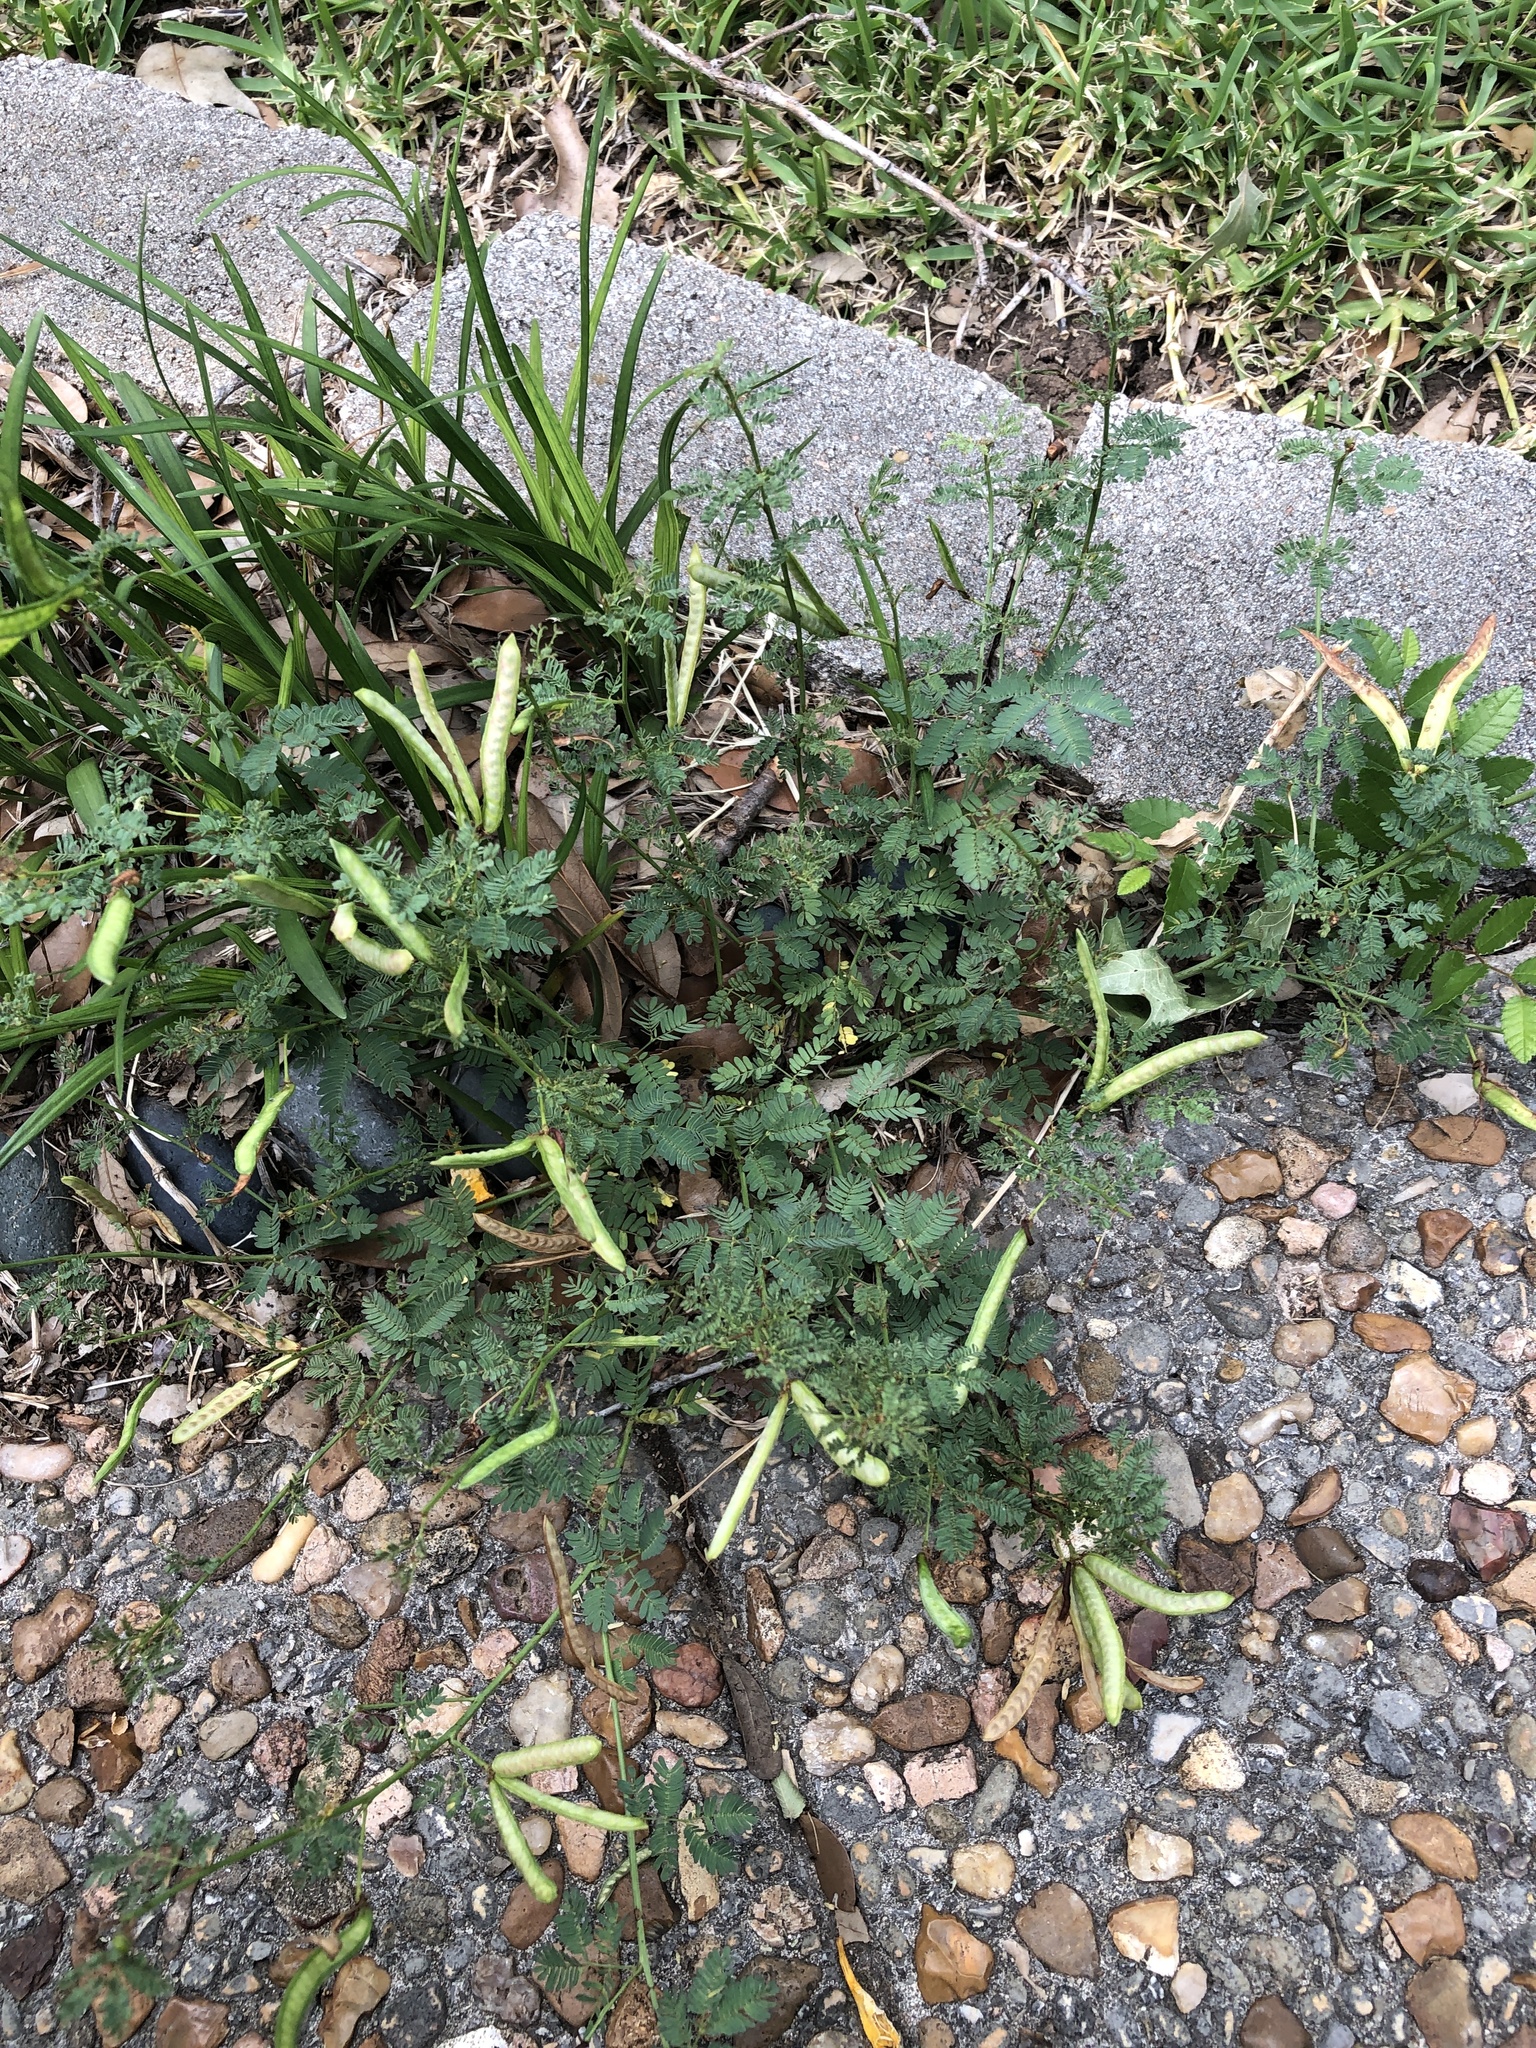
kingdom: Plantae
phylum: Tracheophyta
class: Magnoliopsida
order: Fabales
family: Fabaceae
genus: Desmanthus
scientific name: Desmanthus virgatus
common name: Wild tantan
